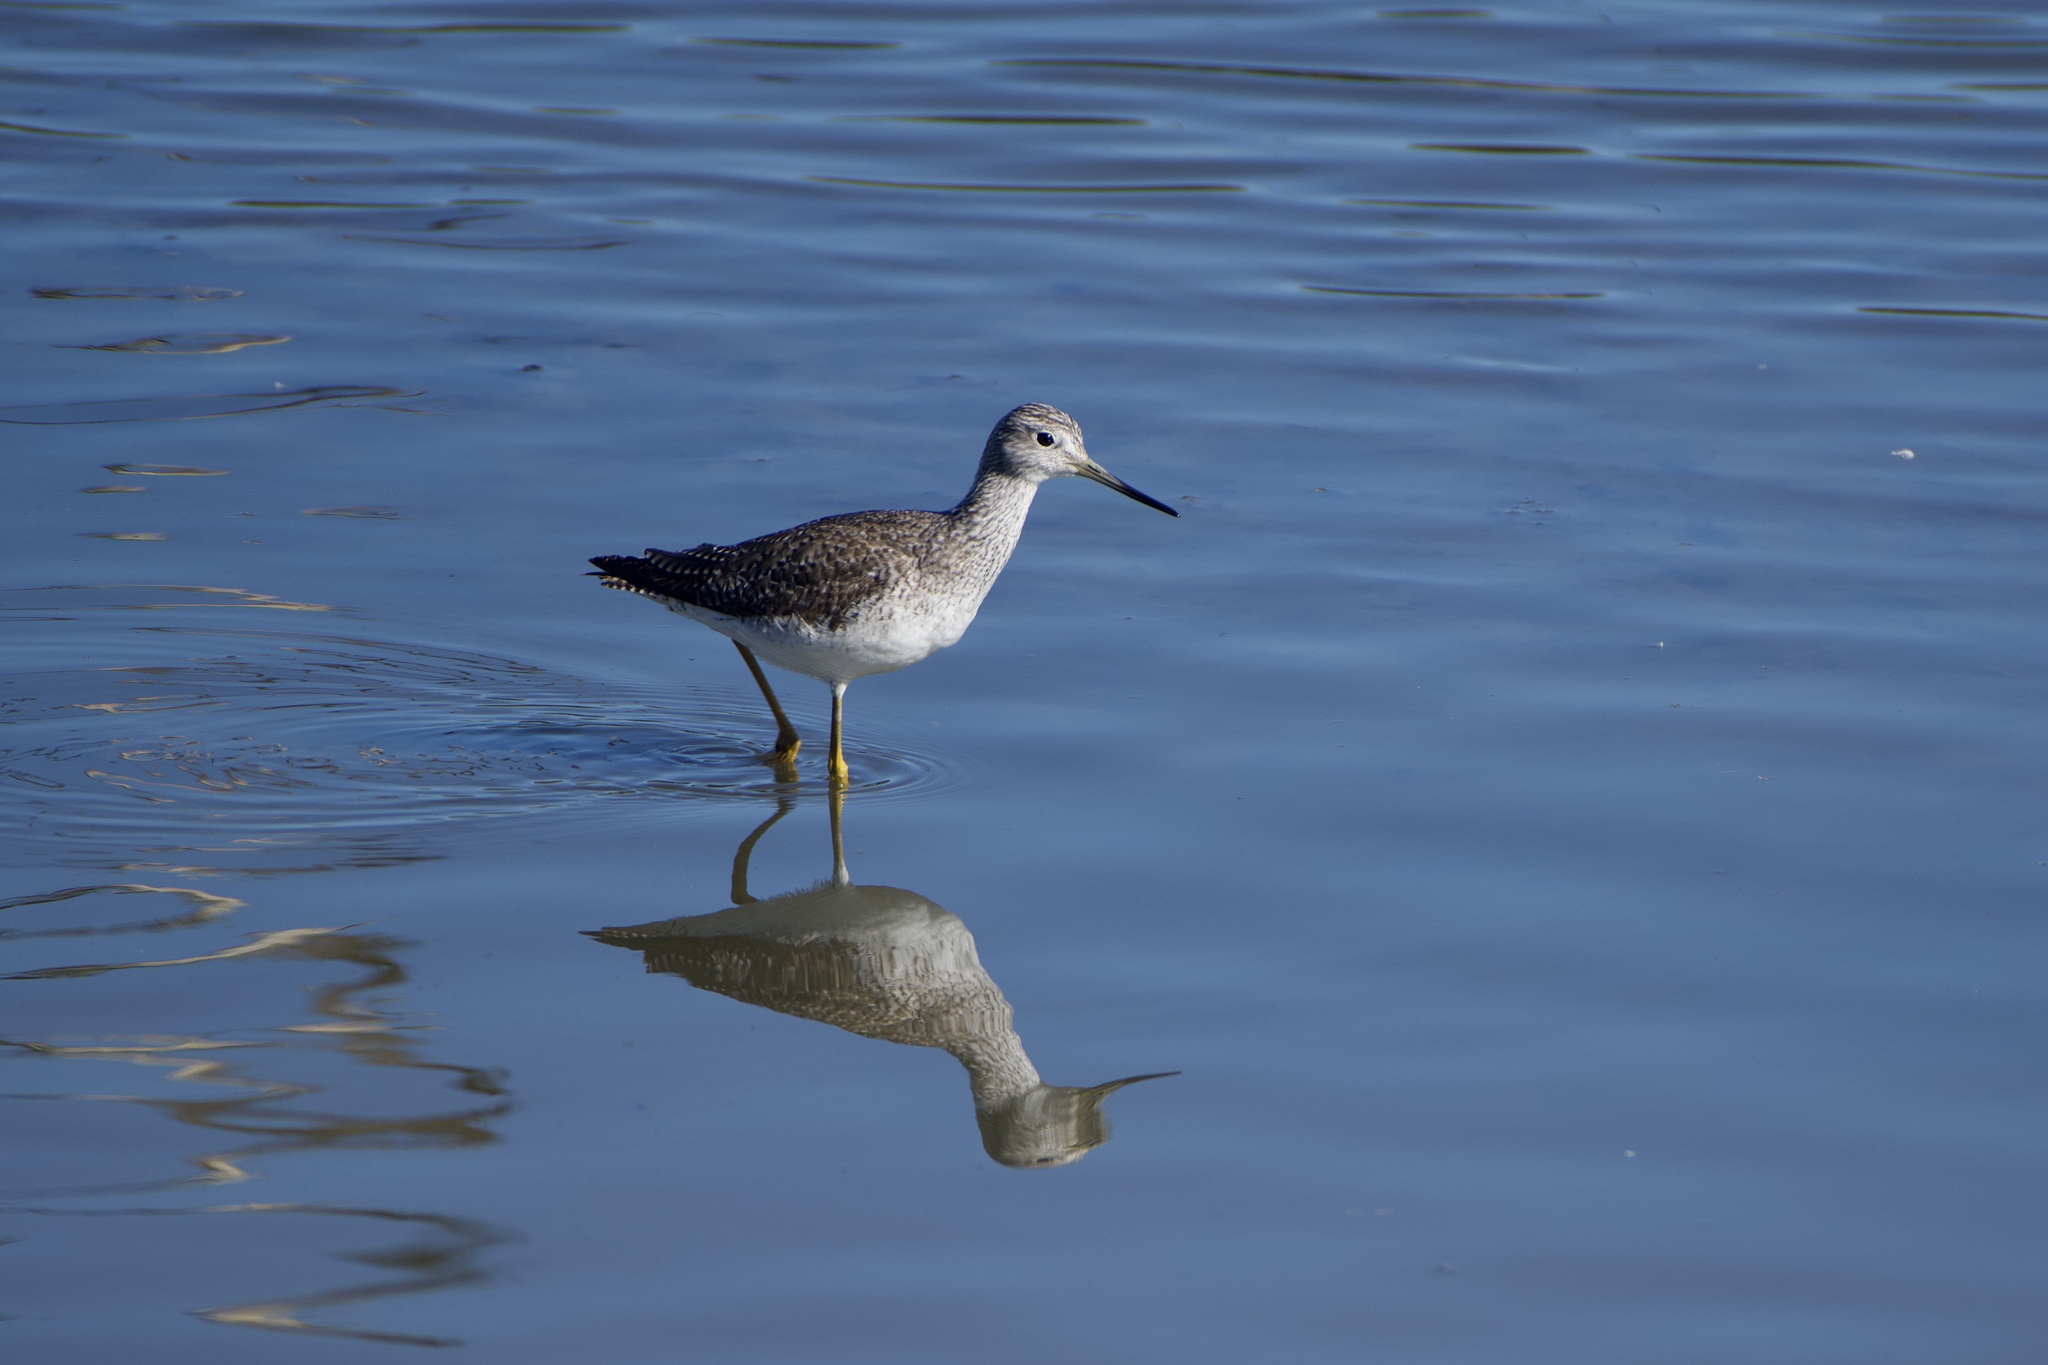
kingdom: Animalia
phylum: Chordata
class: Aves
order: Charadriiformes
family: Scolopacidae
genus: Tringa
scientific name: Tringa melanoleuca
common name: Greater yellowlegs
